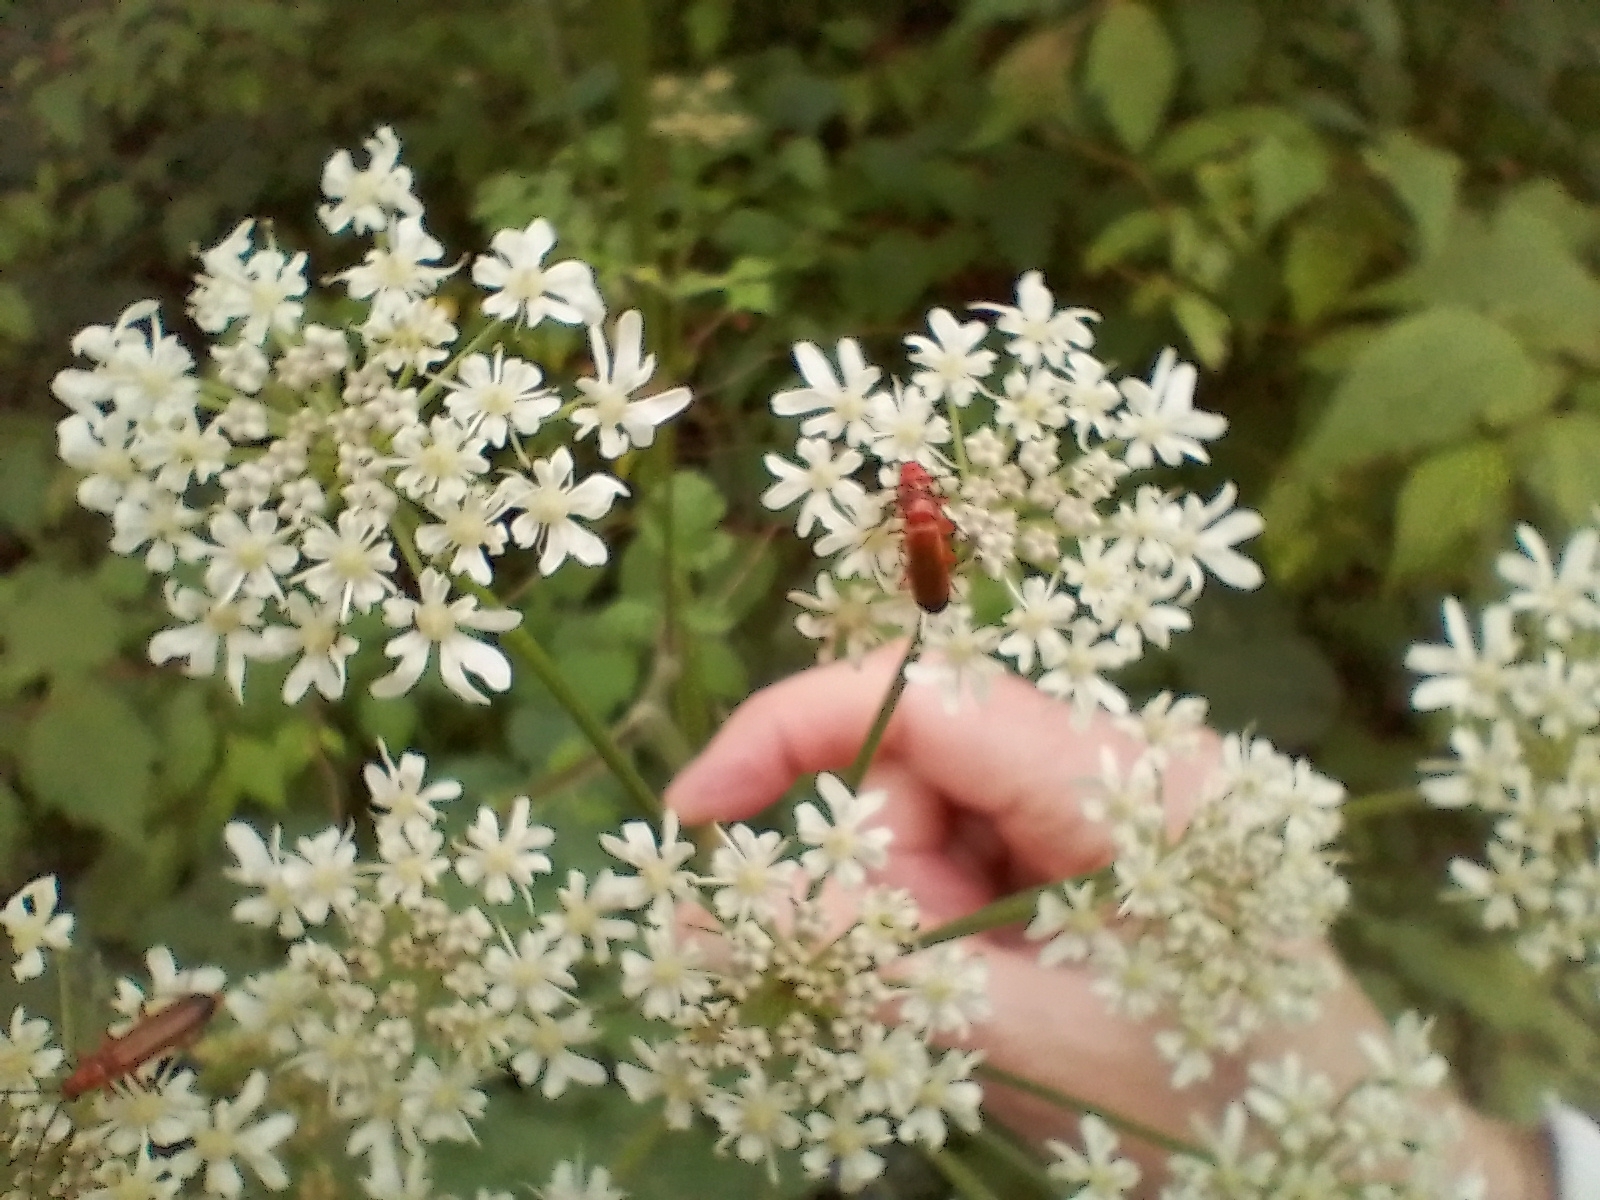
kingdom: Animalia
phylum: Arthropoda
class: Insecta
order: Coleoptera
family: Cantharidae
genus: Rhagonycha
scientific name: Rhagonycha fulva
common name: Common red soldier beetle
